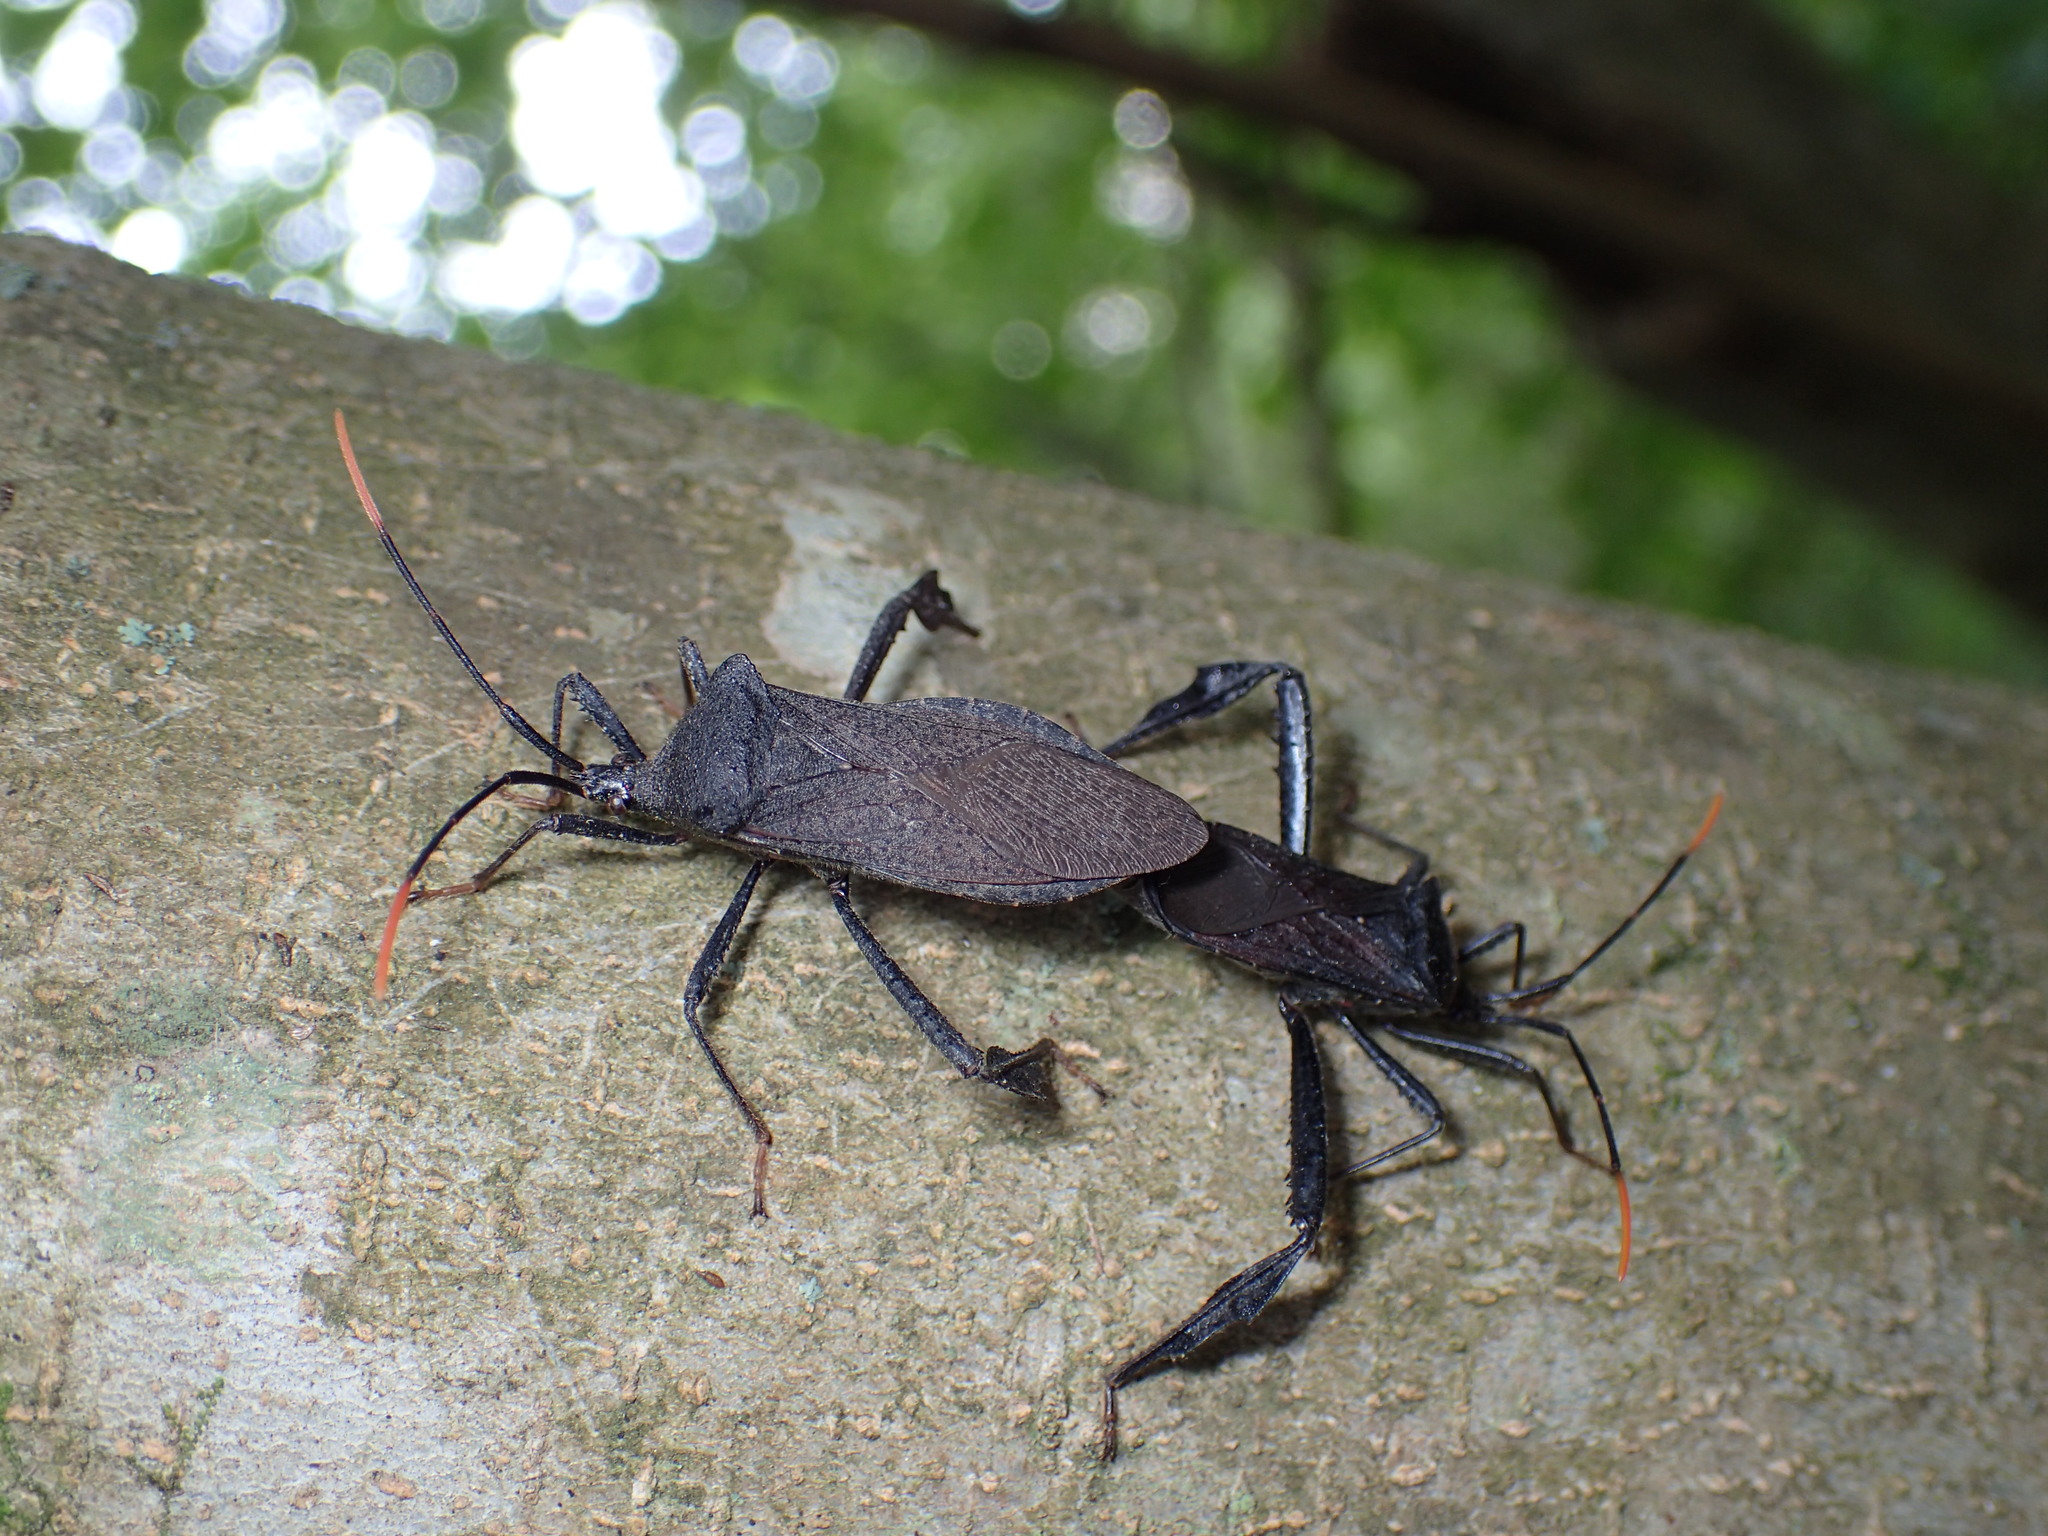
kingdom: Animalia
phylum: Arthropoda
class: Insecta
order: Hemiptera
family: Coreidae
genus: Acanthocephala
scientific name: Acanthocephala terminalis
